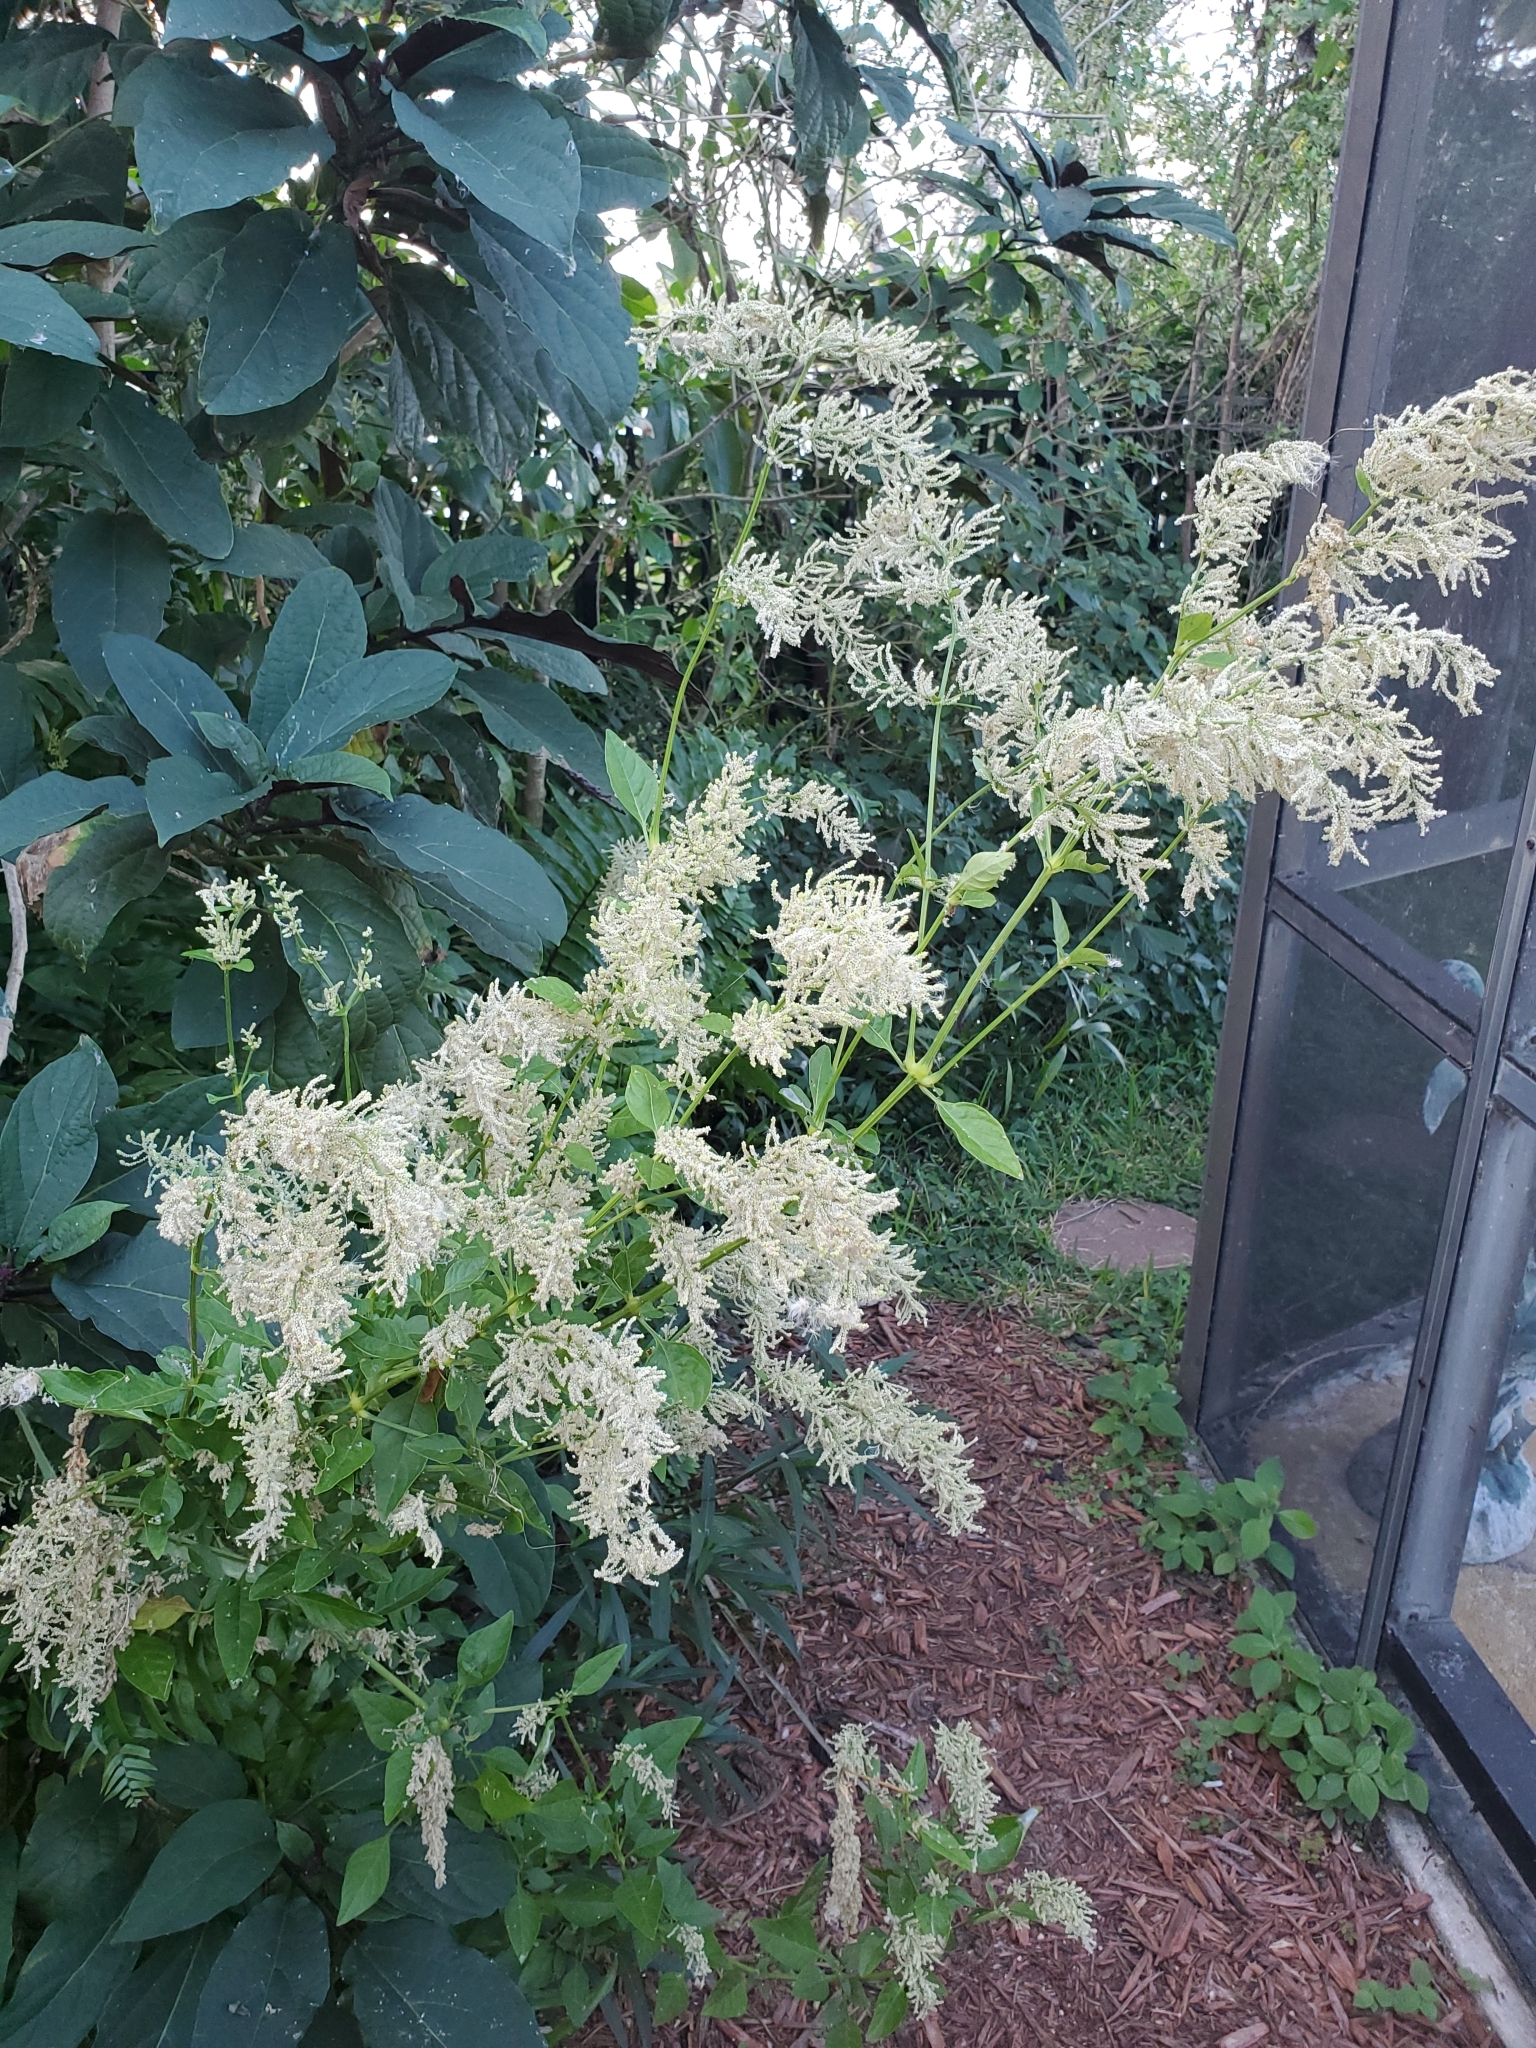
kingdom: Plantae
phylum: Tracheophyta
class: Magnoliopsida
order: Caryophyllales
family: Amaranthaceae
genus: Iresine
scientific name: Iresine diffusa
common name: Juba's-bush
